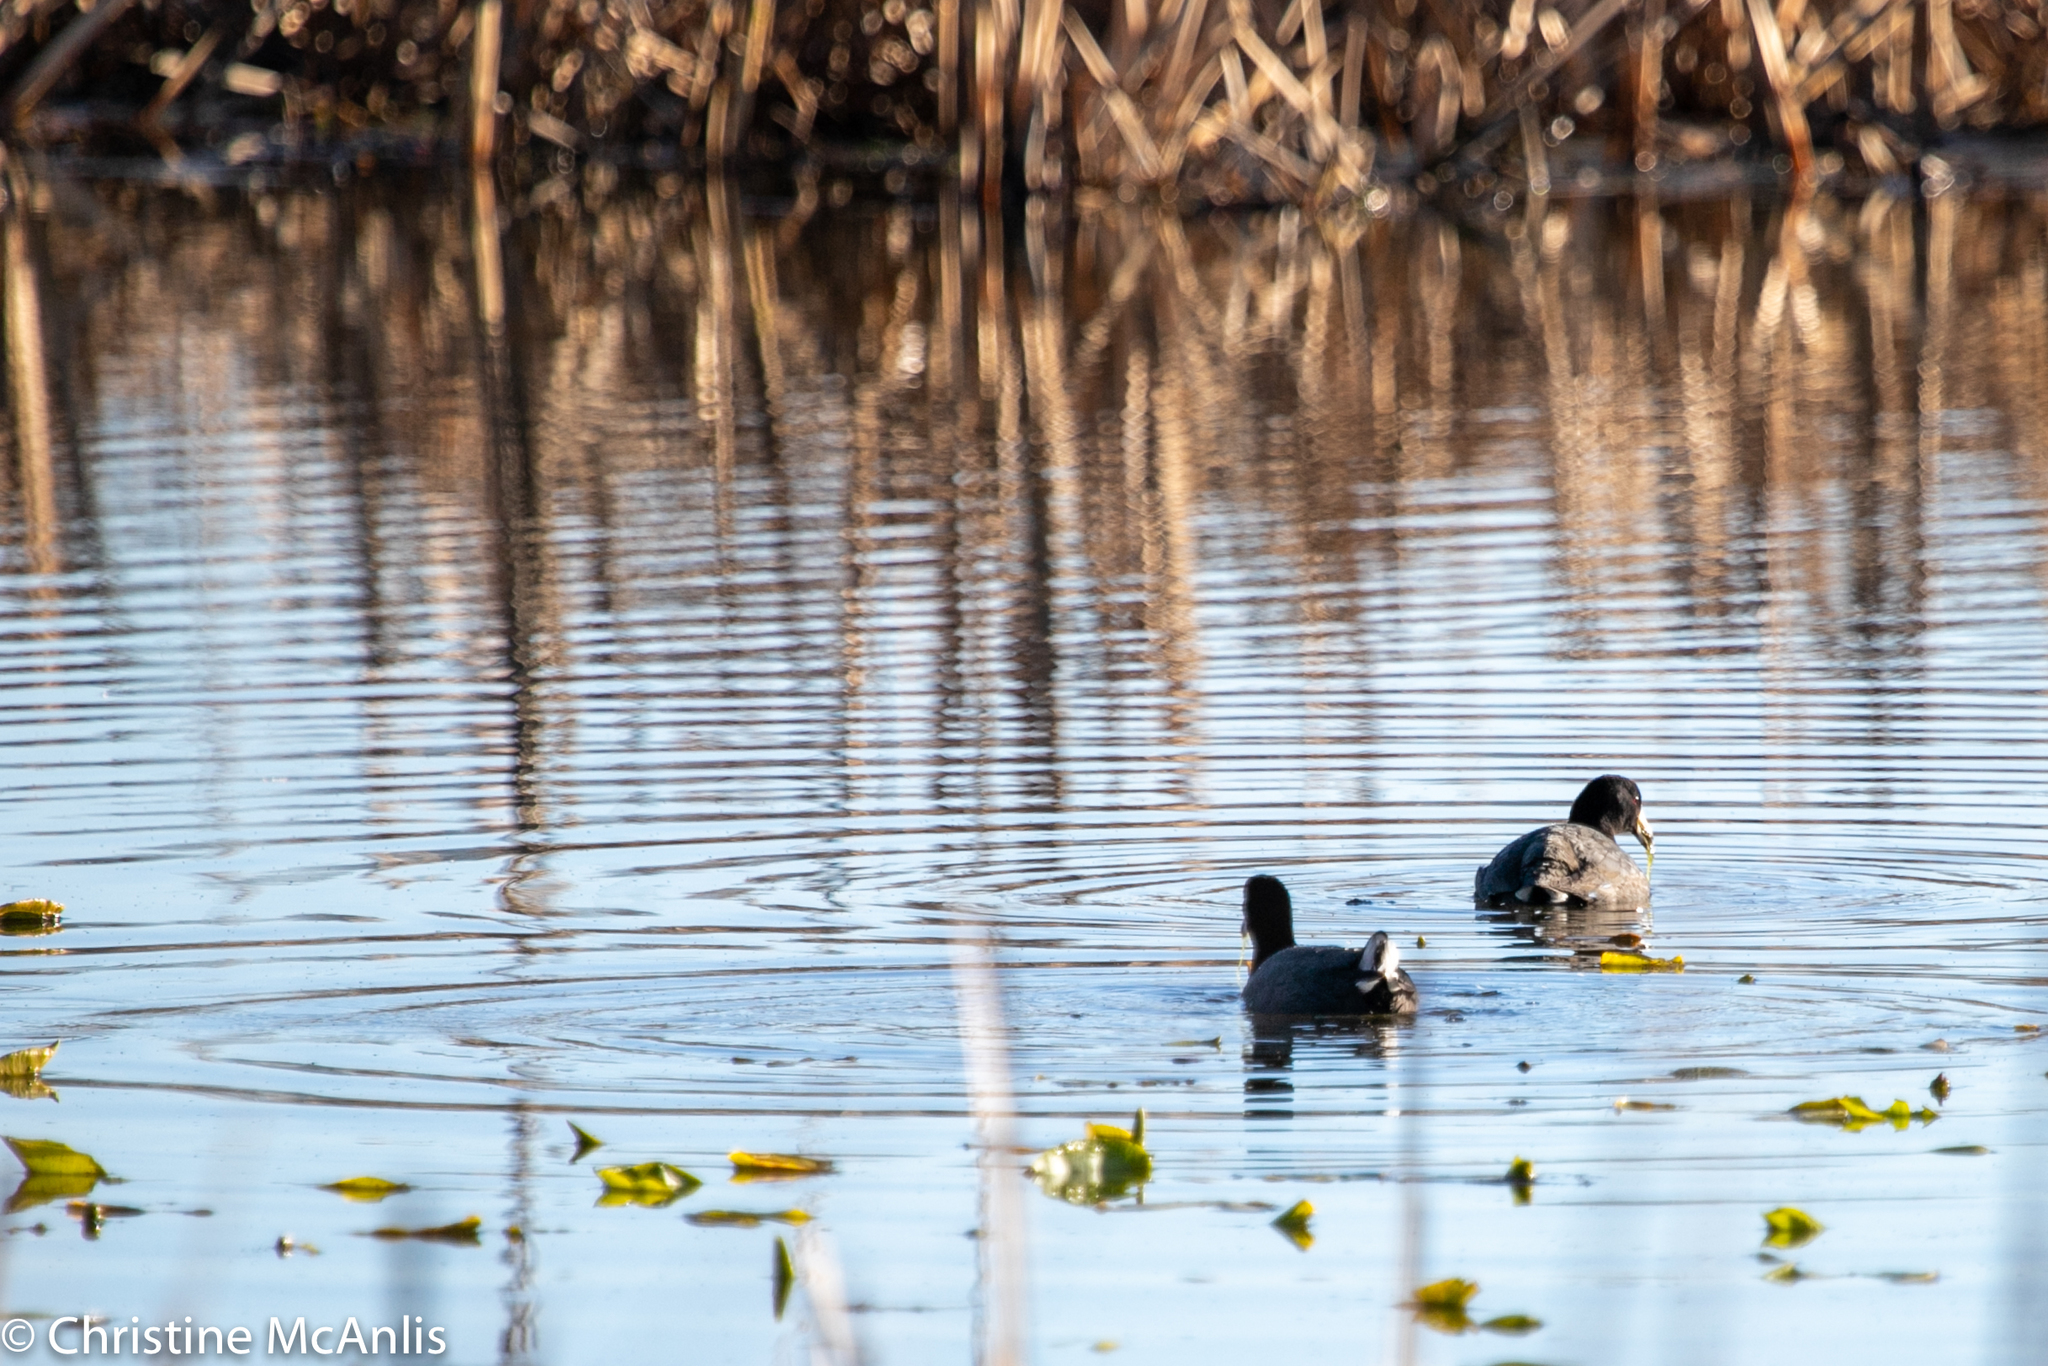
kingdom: Animalia
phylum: Chordata
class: Aves
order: Gruiformes
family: Rallidae
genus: Fulica
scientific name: Fulica americana
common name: American coot
